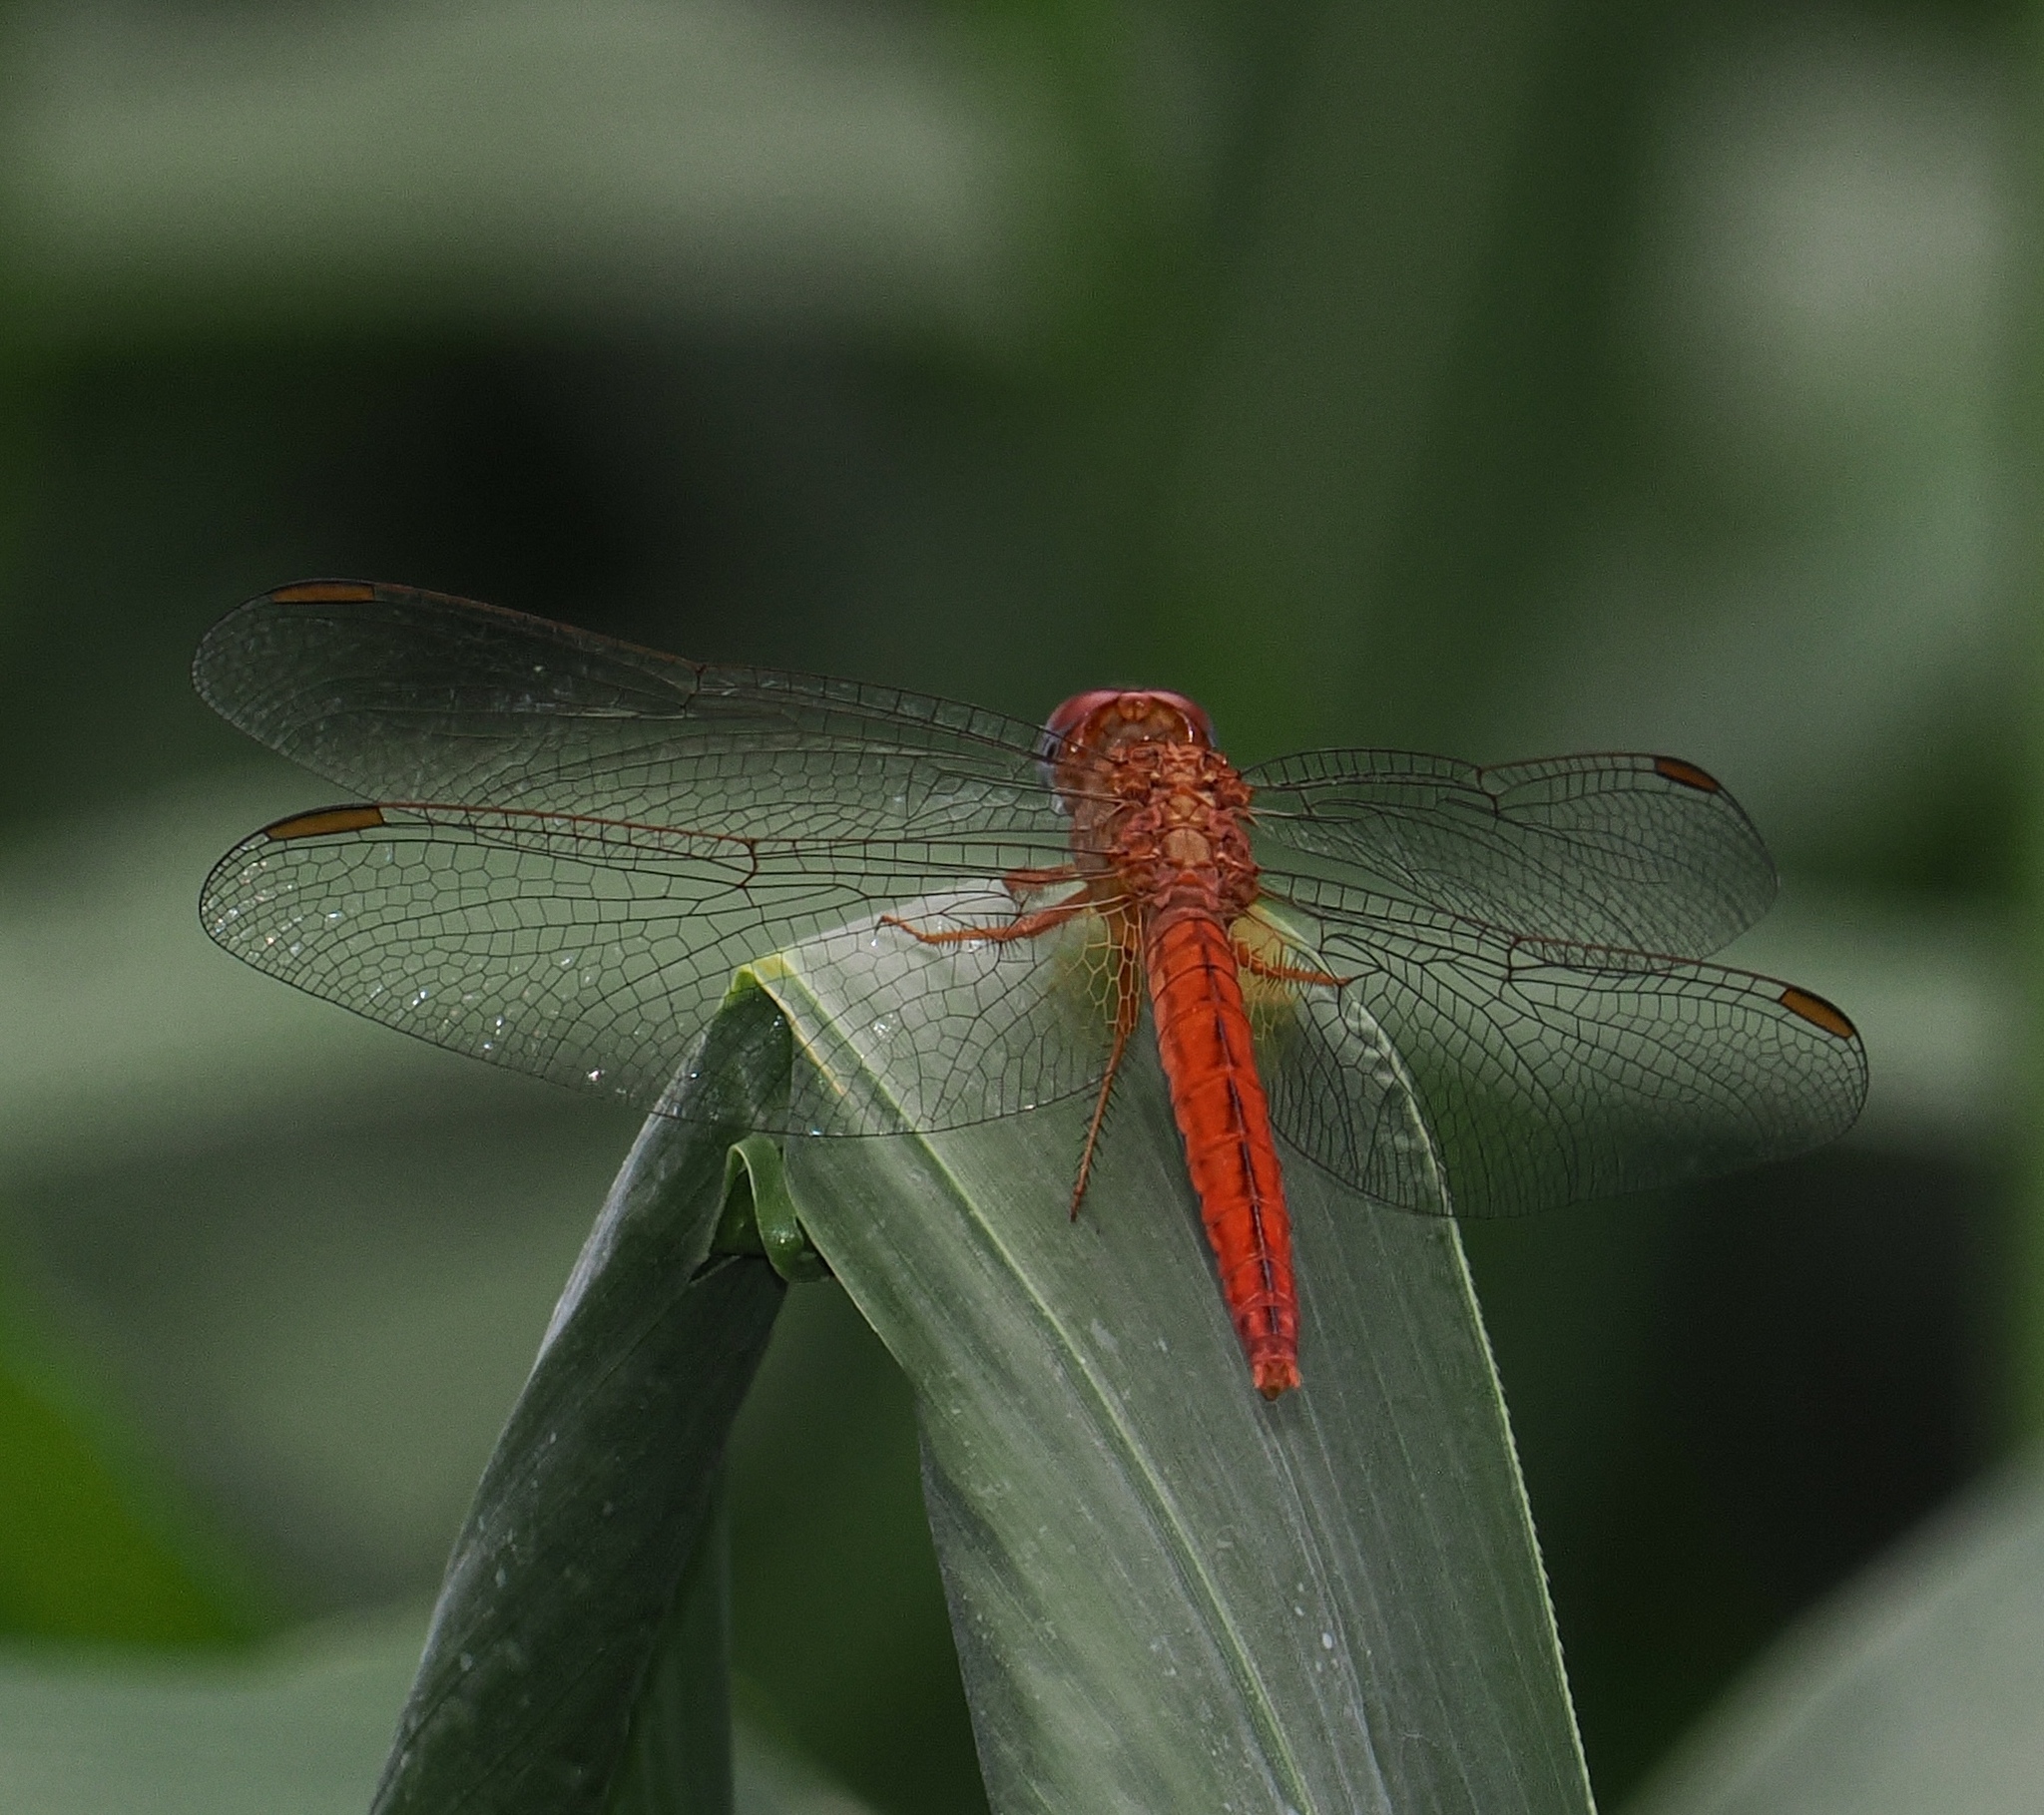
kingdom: Animalia
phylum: Arthropoda
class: Insecta
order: Odonata
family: Libellulidae
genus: Crocothemis
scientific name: Crocothemis erythraea
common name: Scarlet dragonfly
